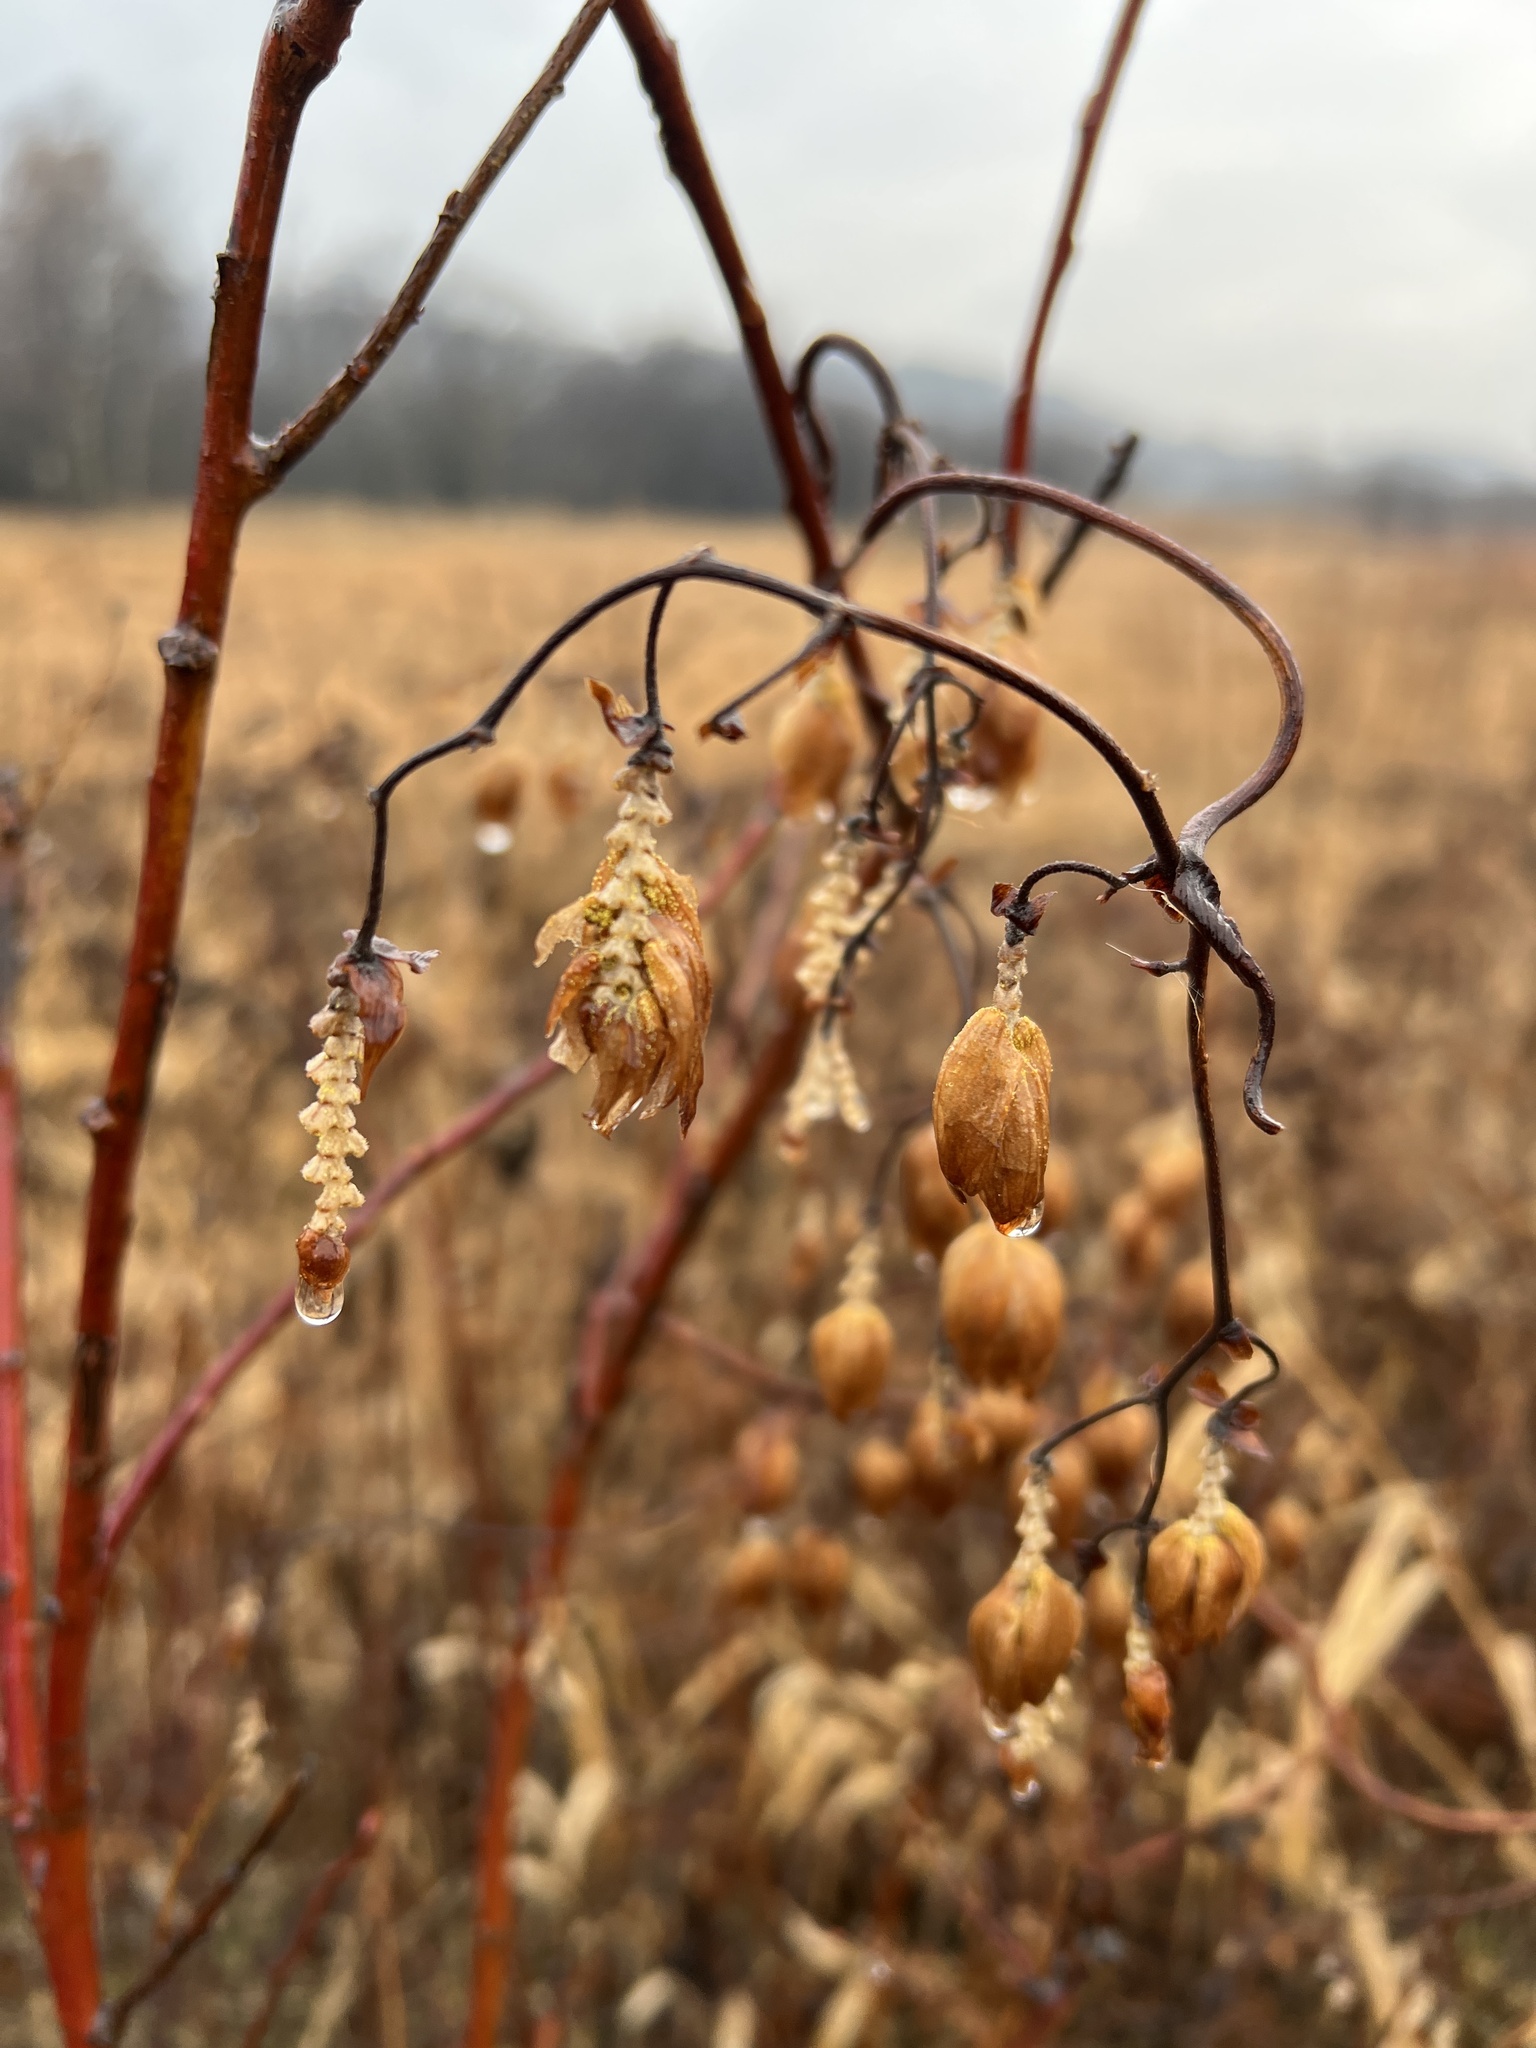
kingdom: Plantae
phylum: Tracheophyta
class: Magnoliopsida
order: Rosales
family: Cannabaceae
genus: Humulus
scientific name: Humulus lupulus
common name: Hop
